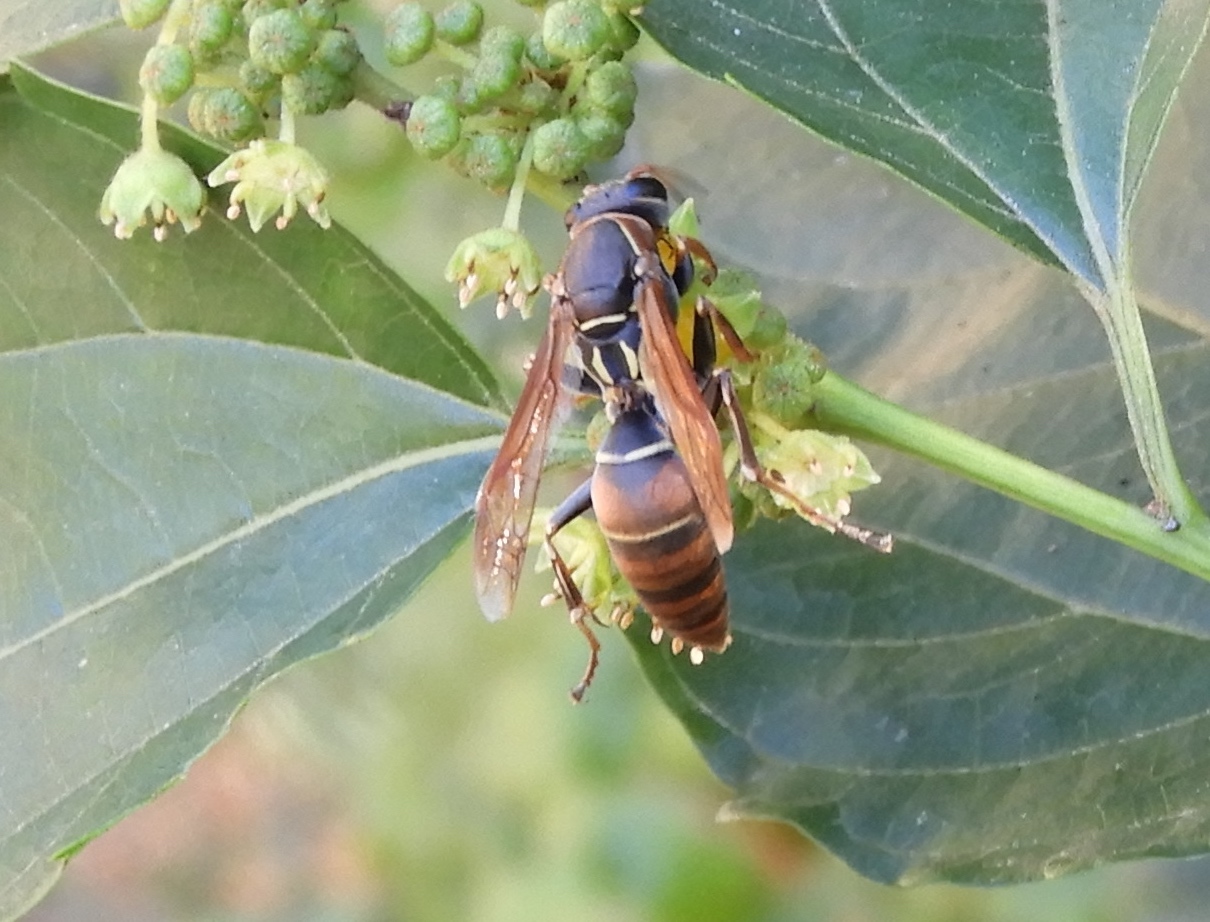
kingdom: Animalia
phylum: Arthropoda
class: Insecta
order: Hymenoptera
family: Eumenidae
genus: Polistes
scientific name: Polistes pacificus
